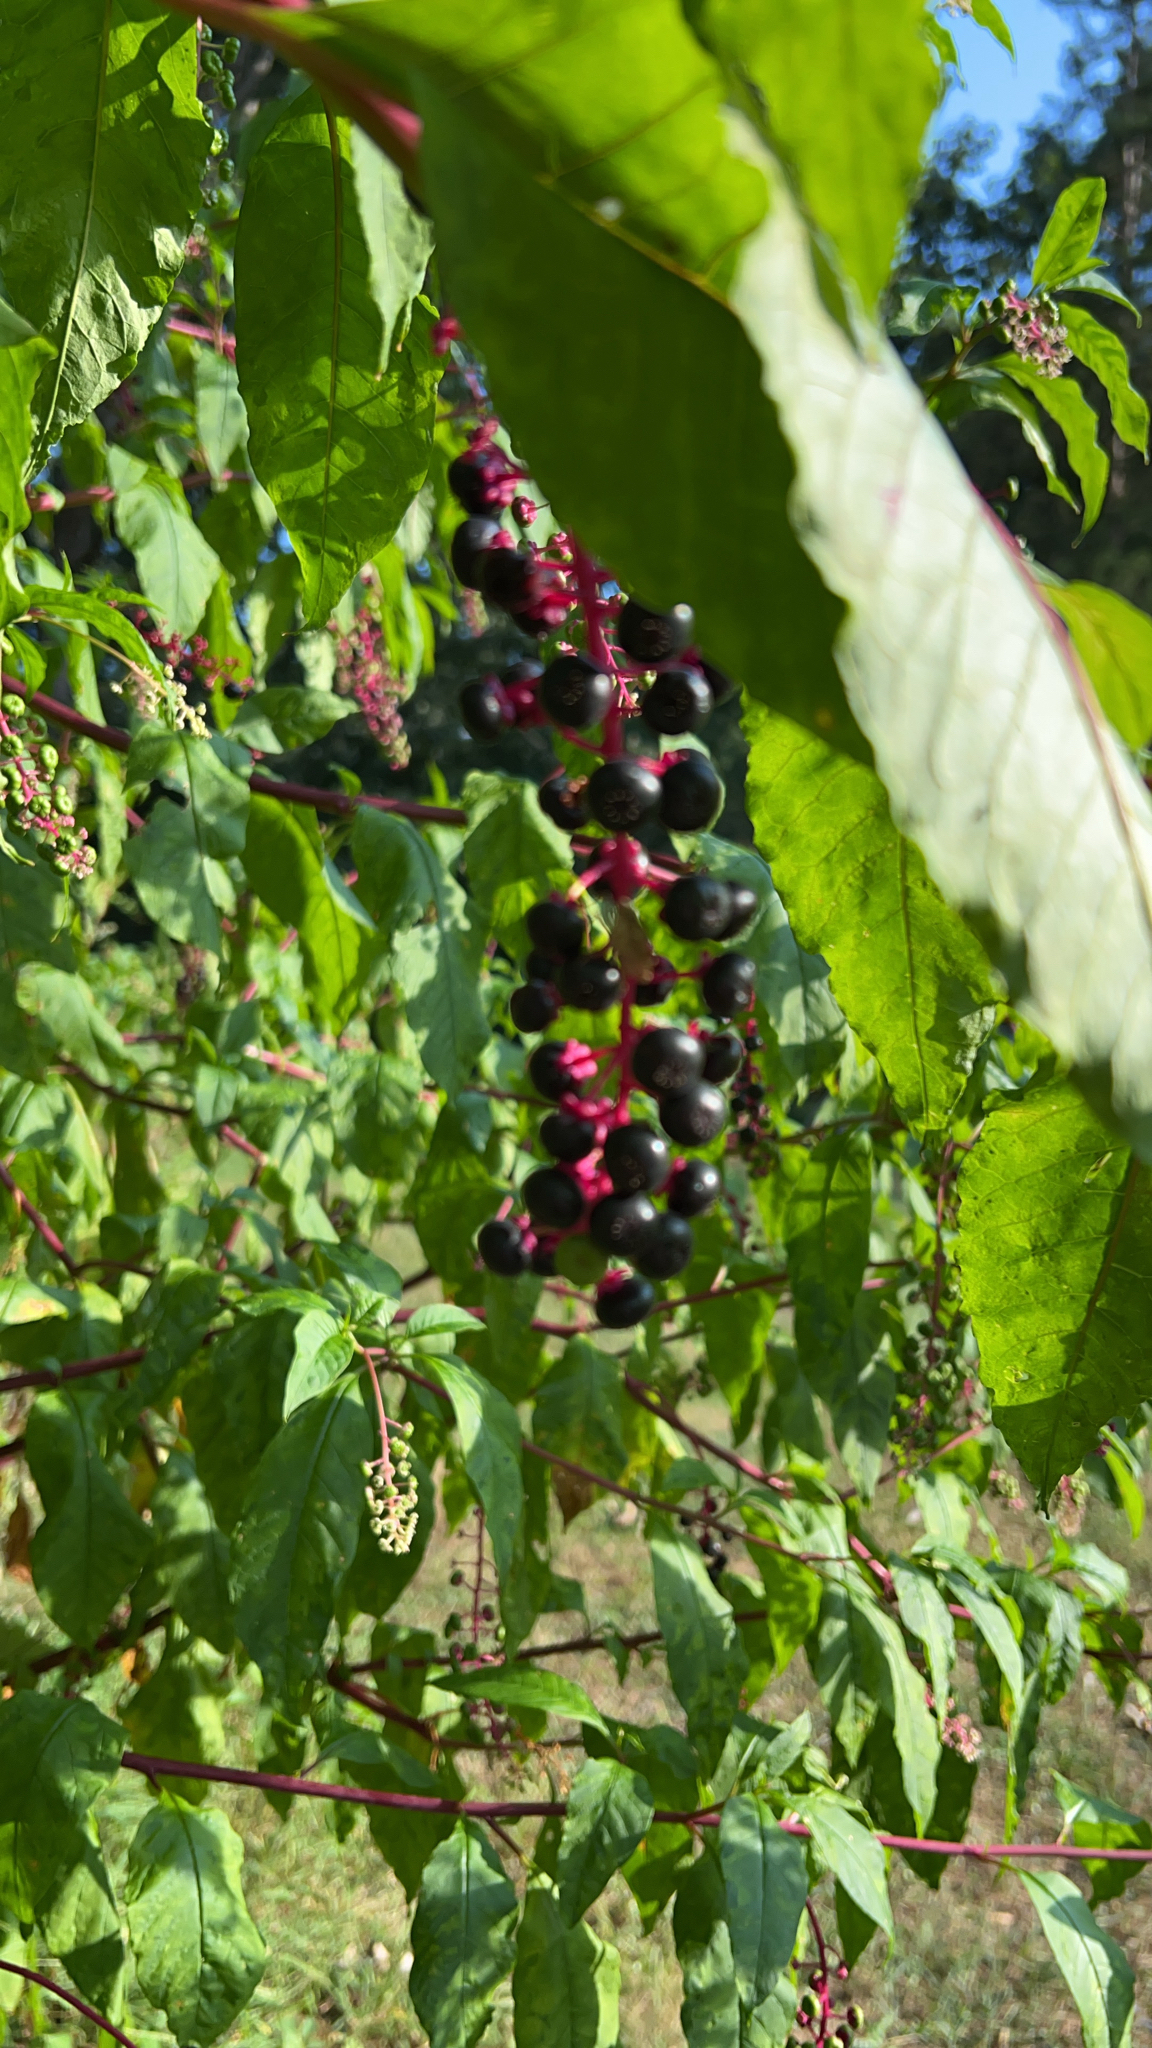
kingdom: Plantae
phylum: Tracheophyta
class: Magnoliopsida
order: Caryophyllales
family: Phytolaccaceae
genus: Phytolacca
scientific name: Phytolacca americana
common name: American pokeweed
